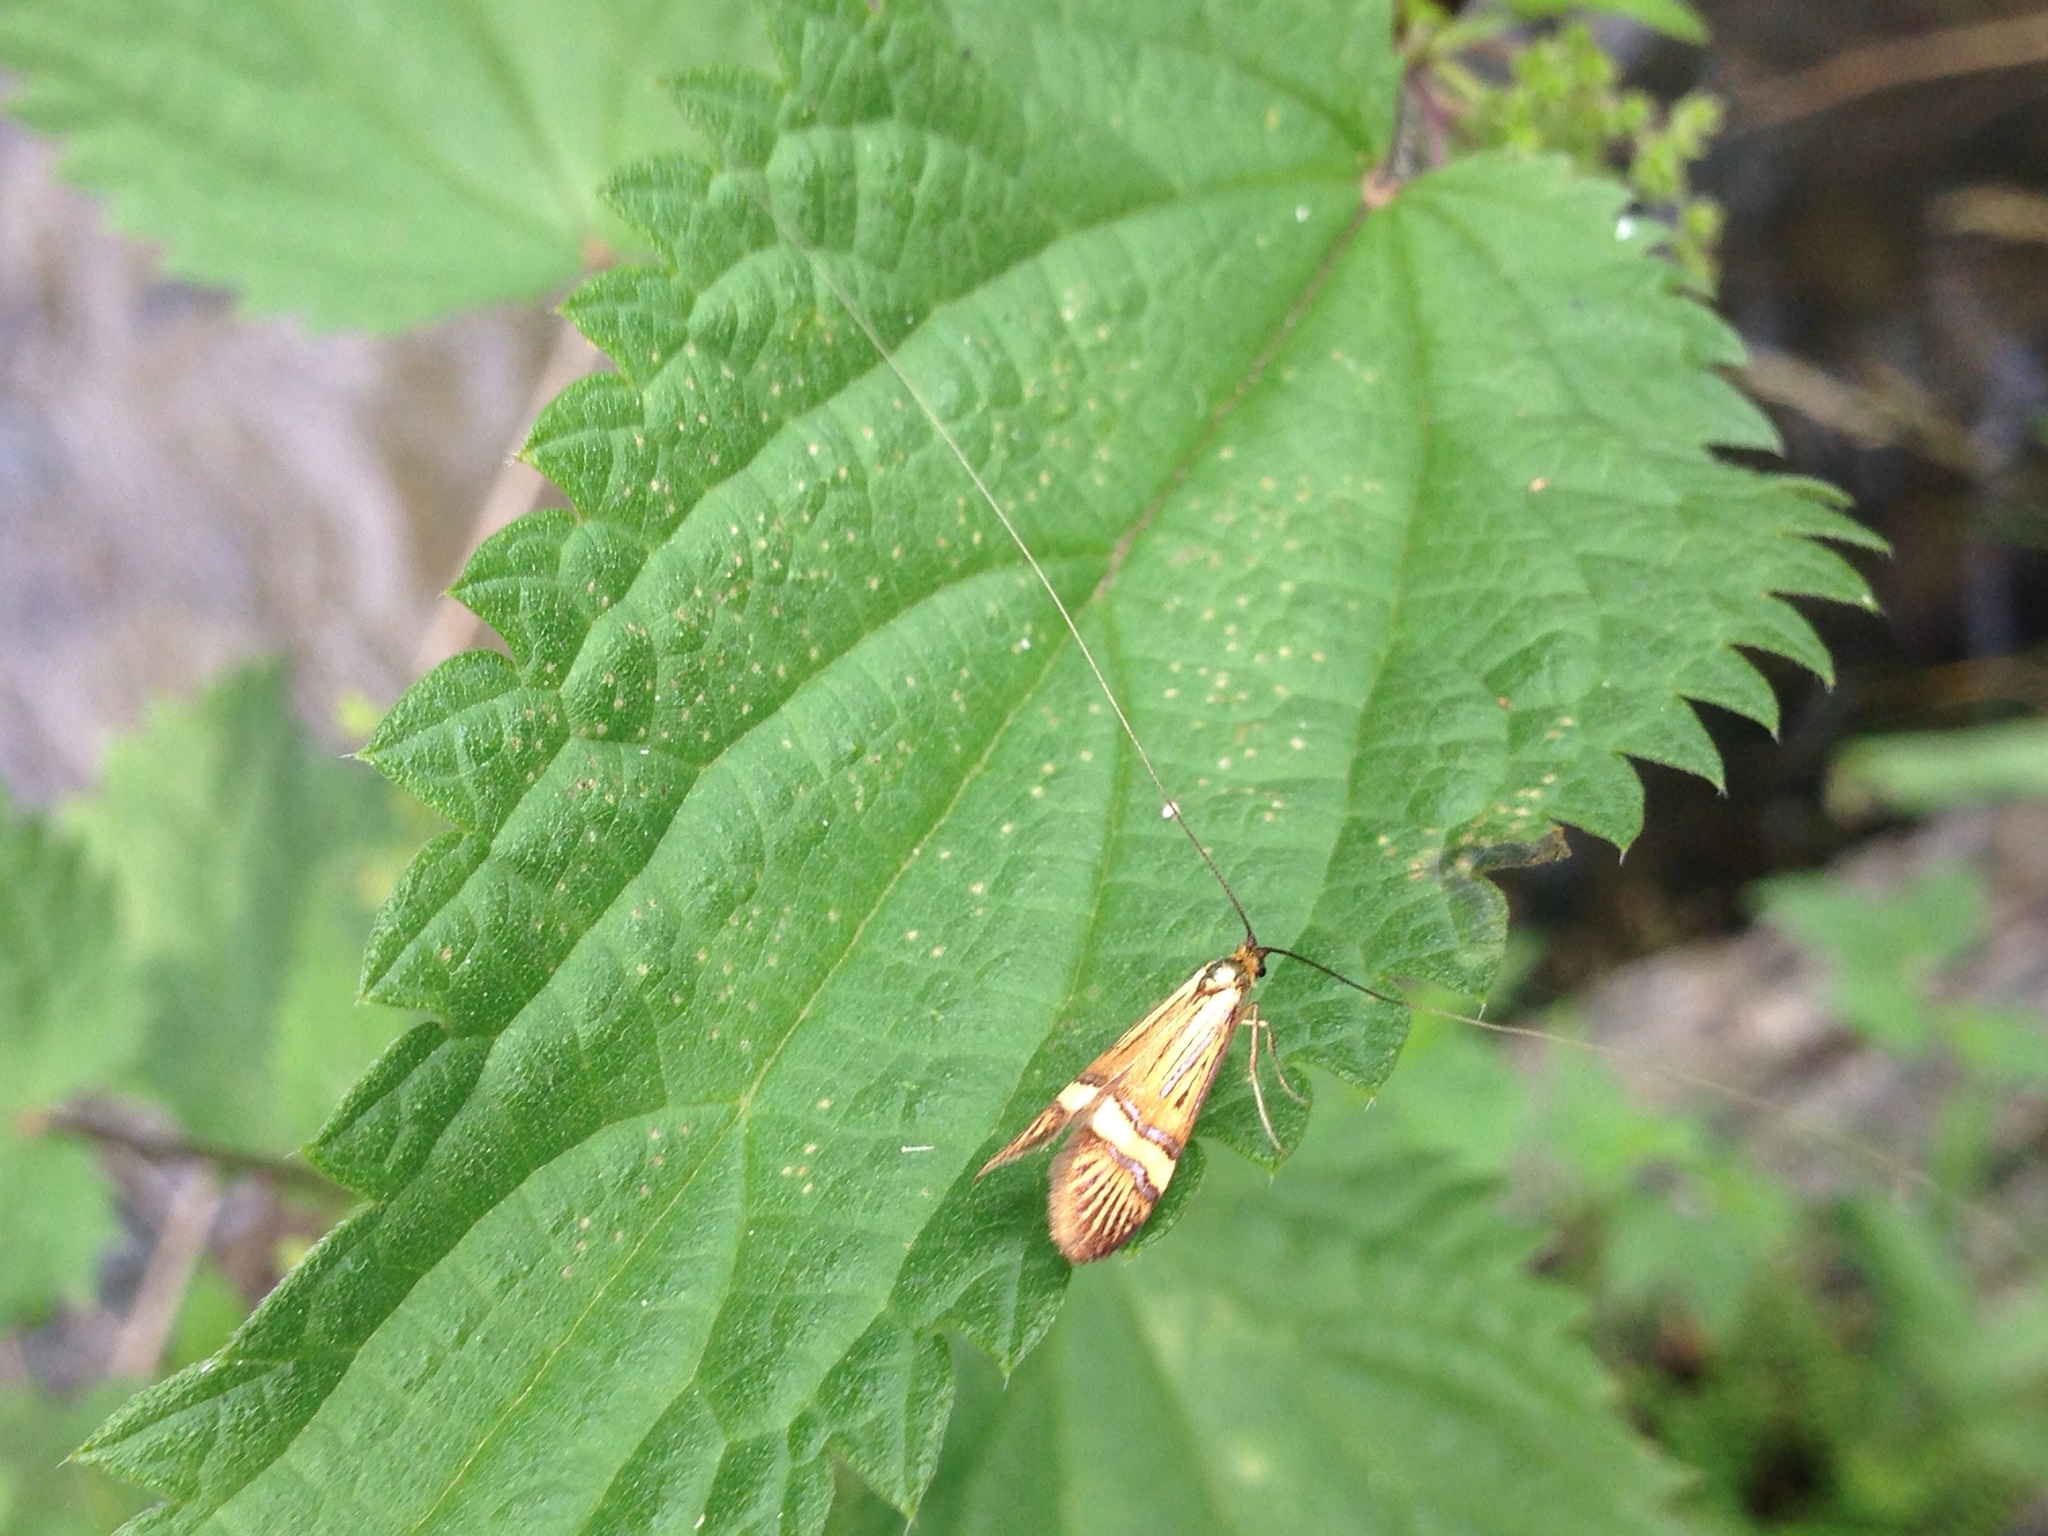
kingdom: Animalia
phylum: Arthropoda
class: Insecta
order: Lepidoptera
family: Adelidae
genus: Nemophora
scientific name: Nemophora
